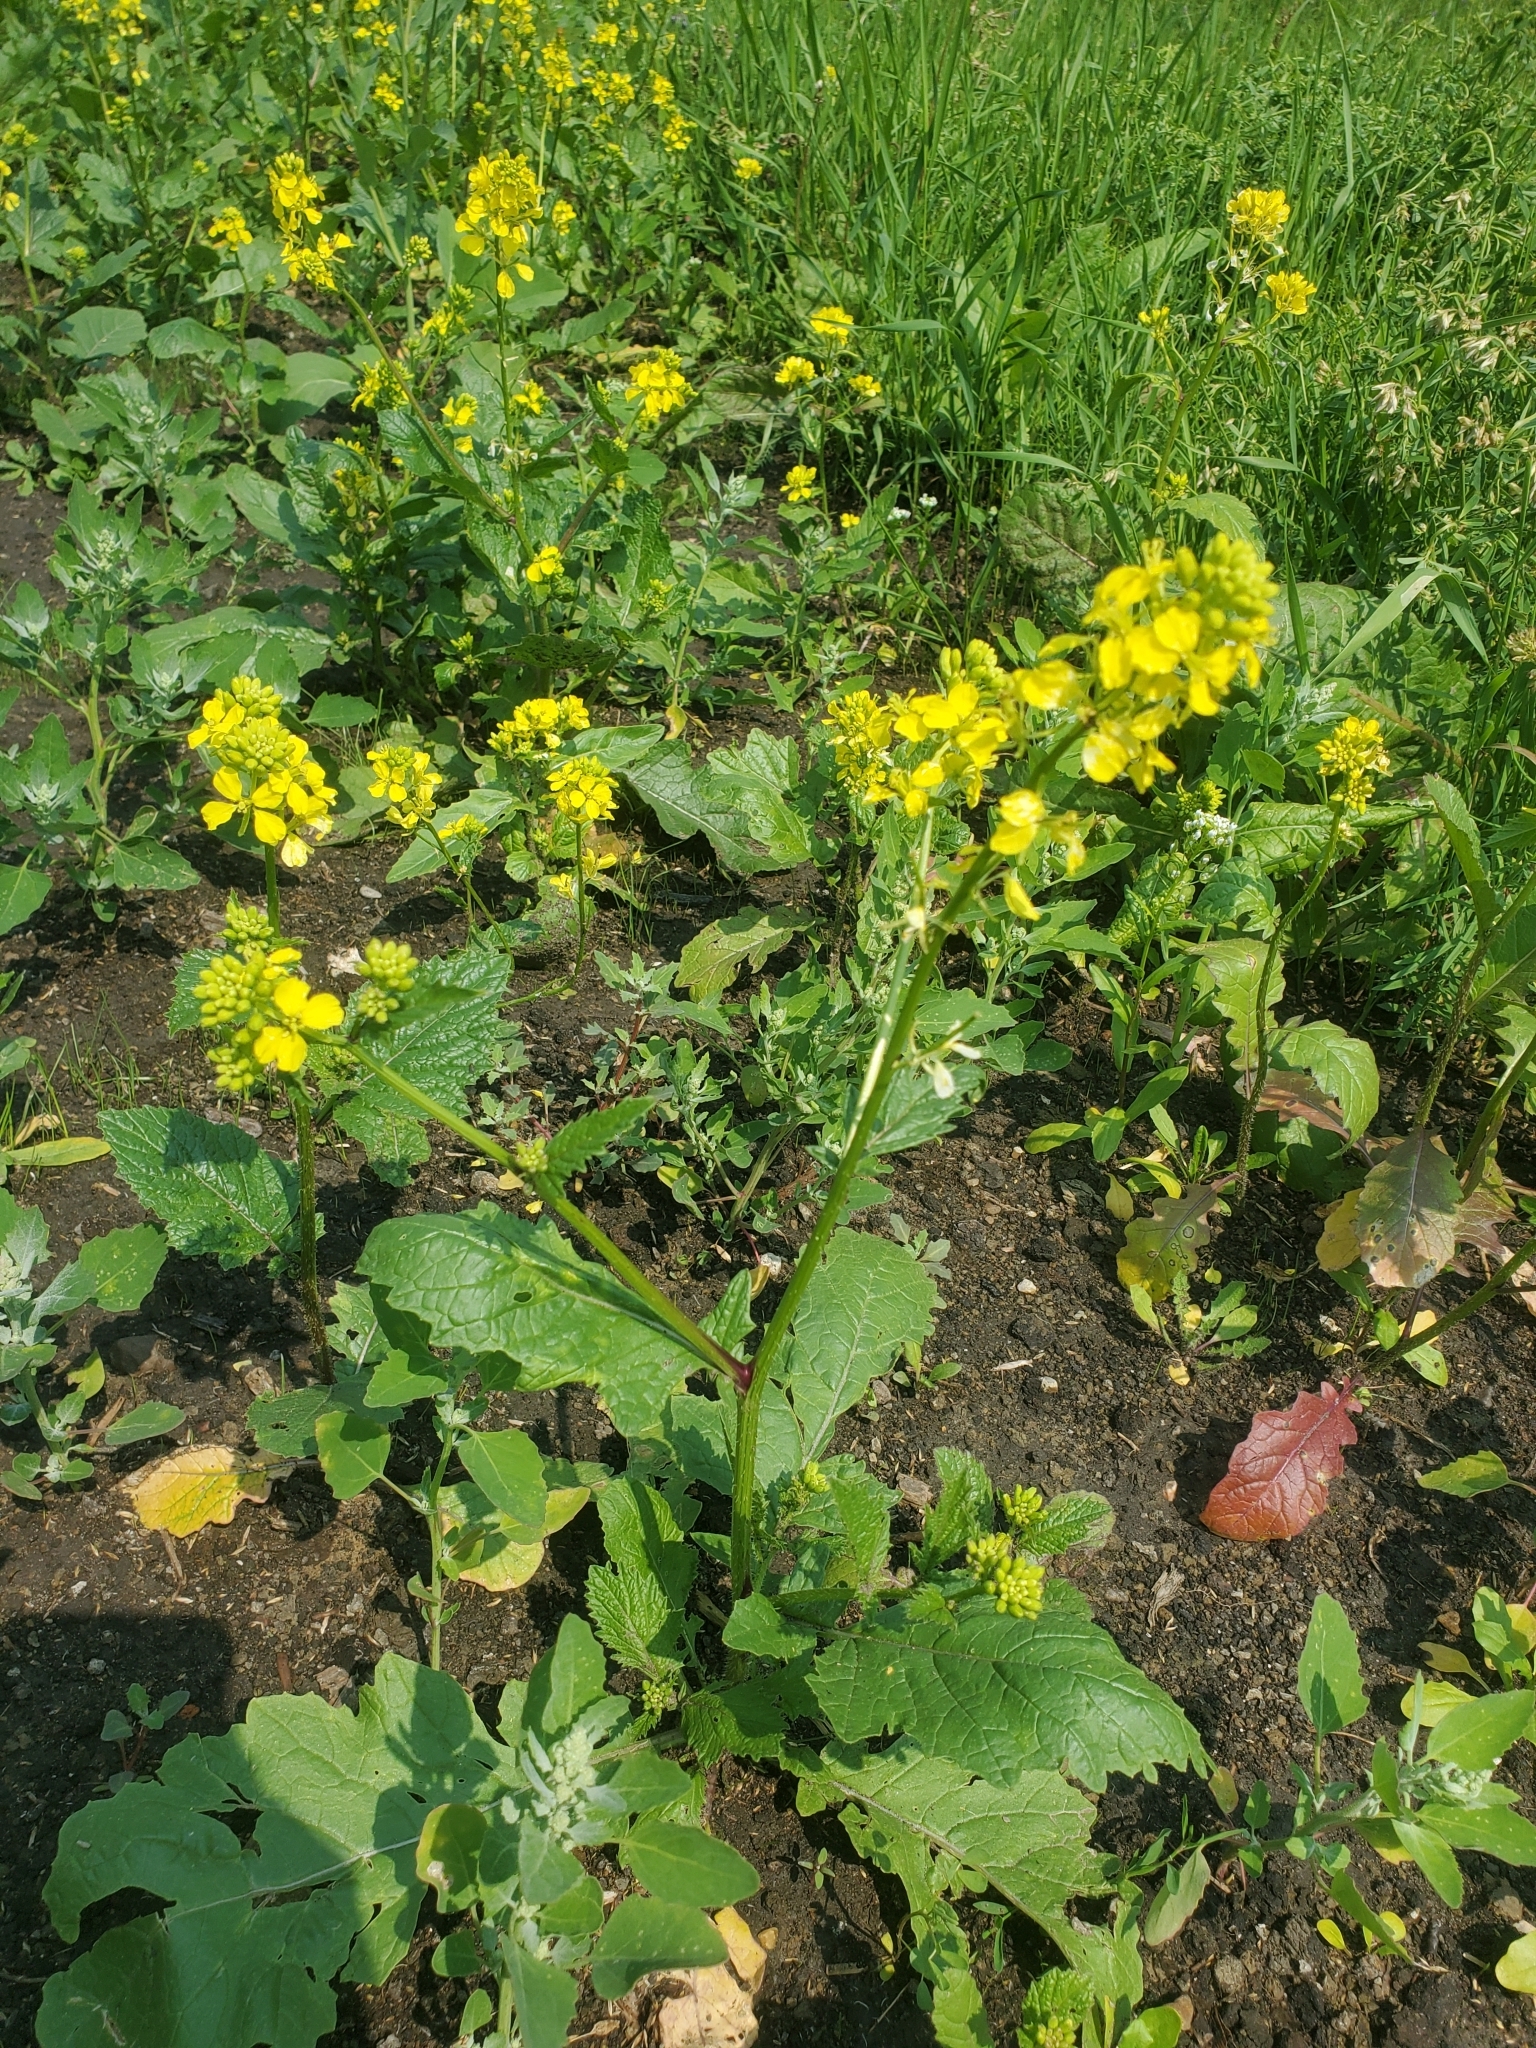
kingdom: Plantae
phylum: Tracheophyta
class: Magnoliopsida
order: Brassicales
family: Brassicaceae
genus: Sinapis
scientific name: Sinapis arvensis
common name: Charlock
